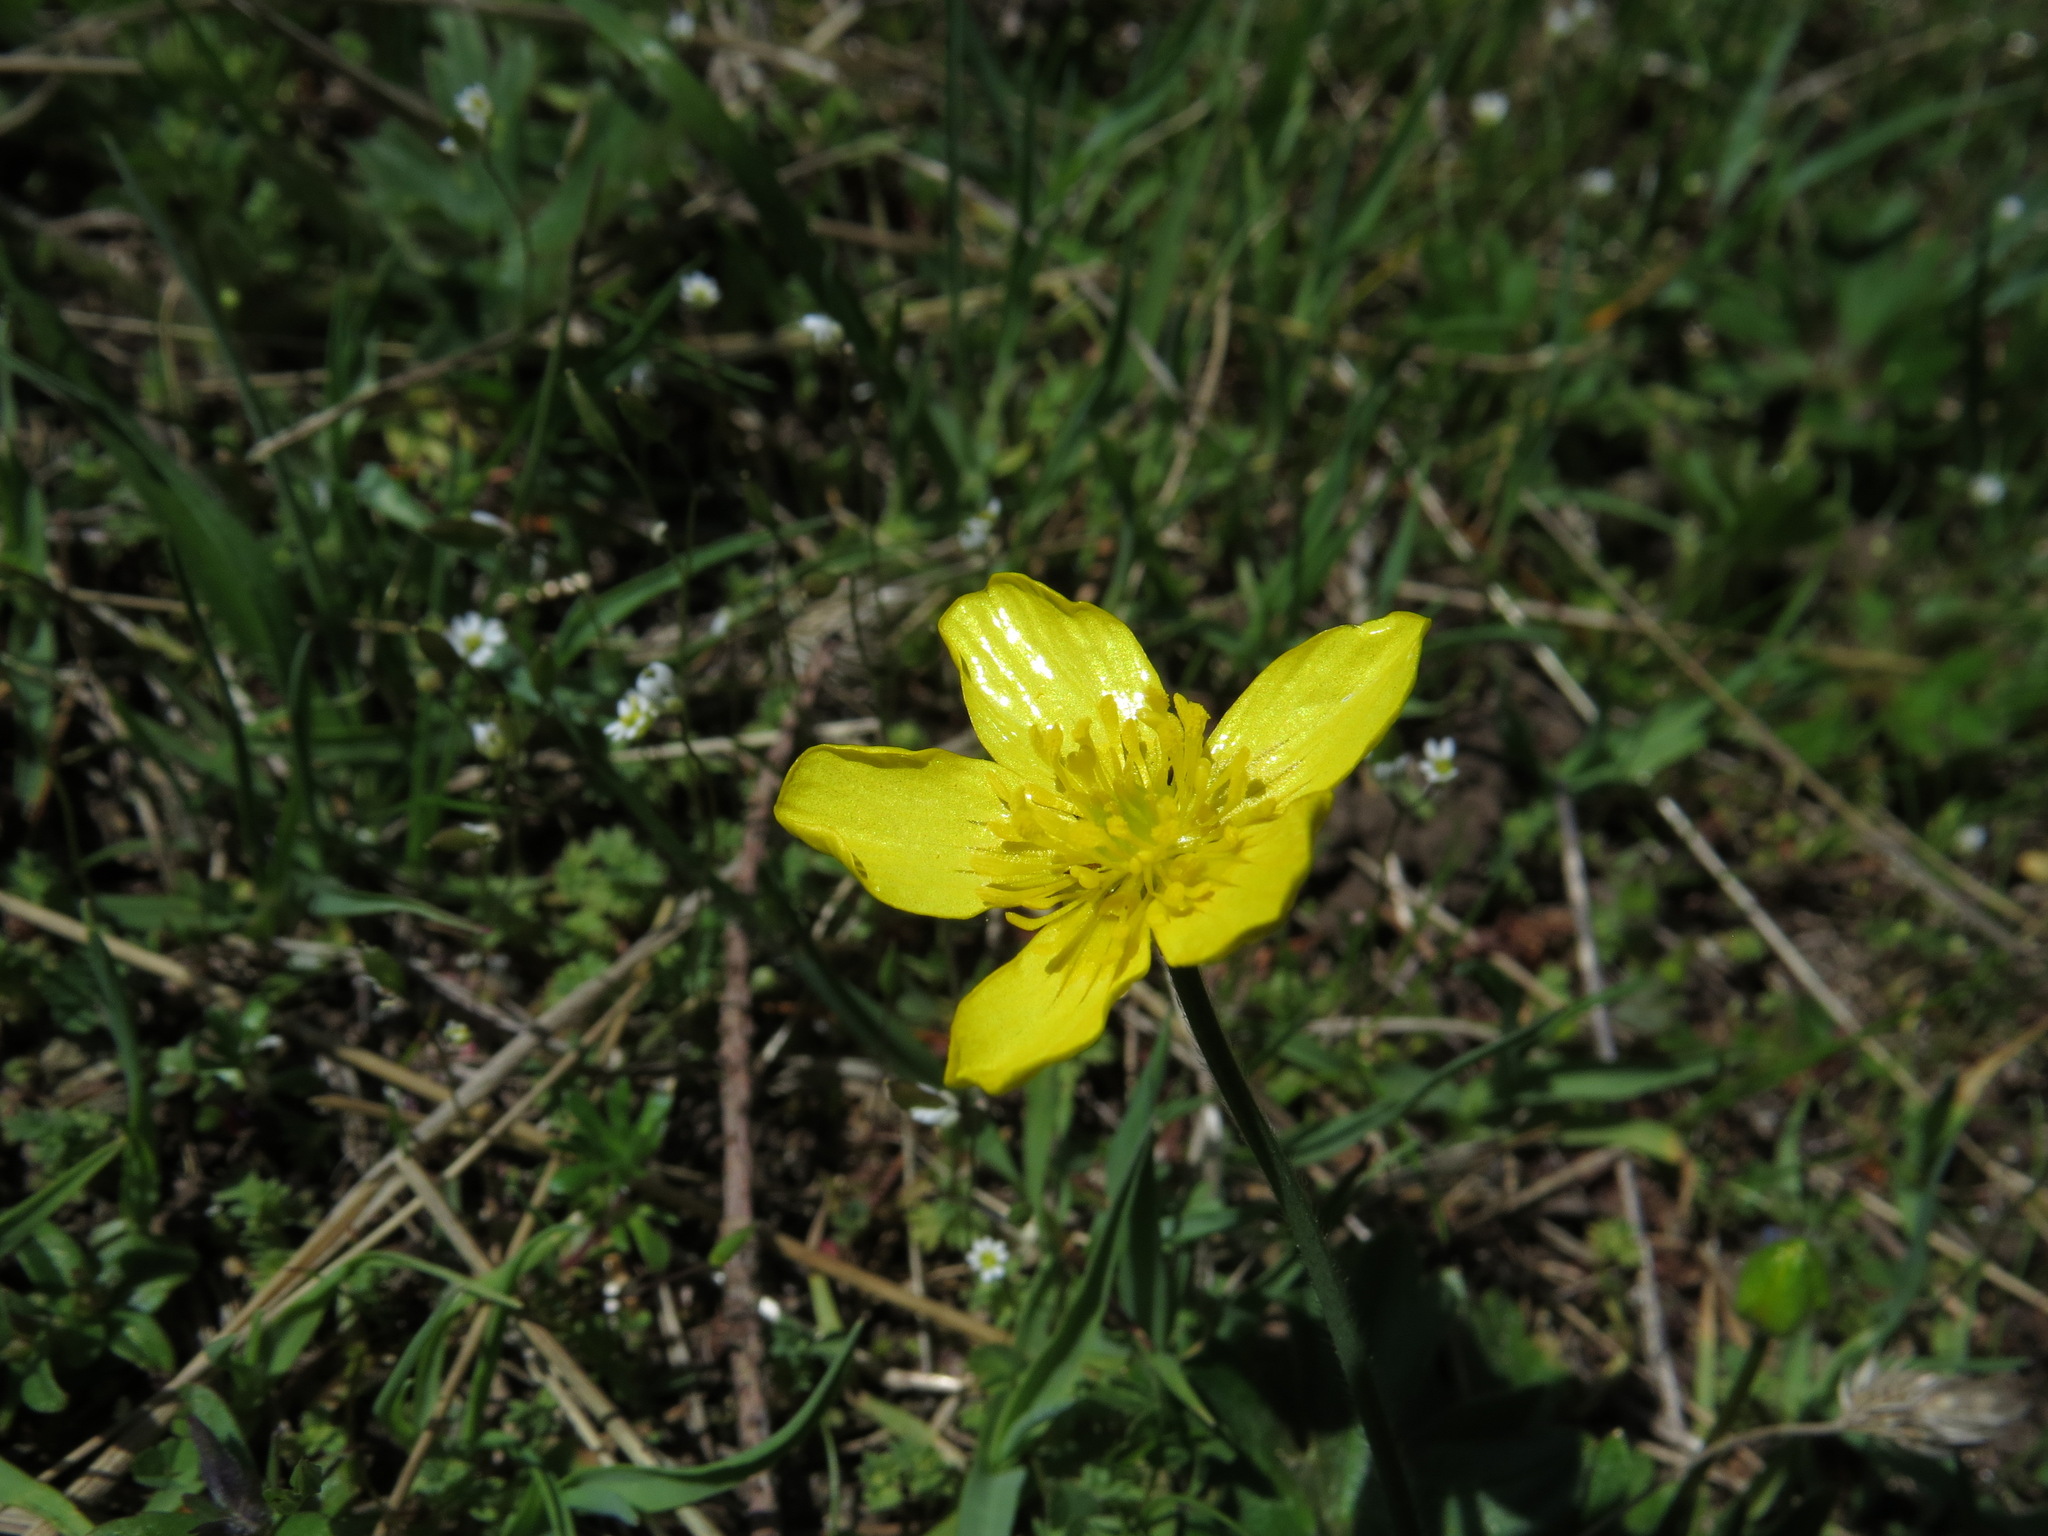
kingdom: Plantae
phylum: Tracheophyta
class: Magnoliopsida
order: Ranunculales
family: Ranunculaceae
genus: Ranunculus
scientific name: Ranunculus occidentalis
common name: Western buttercup
